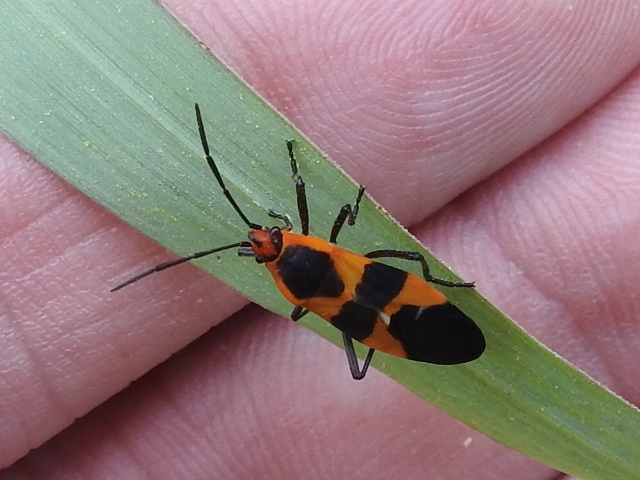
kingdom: Animalia
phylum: Arthropoda
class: Insecta
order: Hemiptera
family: Lygaeidae
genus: Oncopeltus
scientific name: Oncopeltus fasciatus
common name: Large milkweed bug
